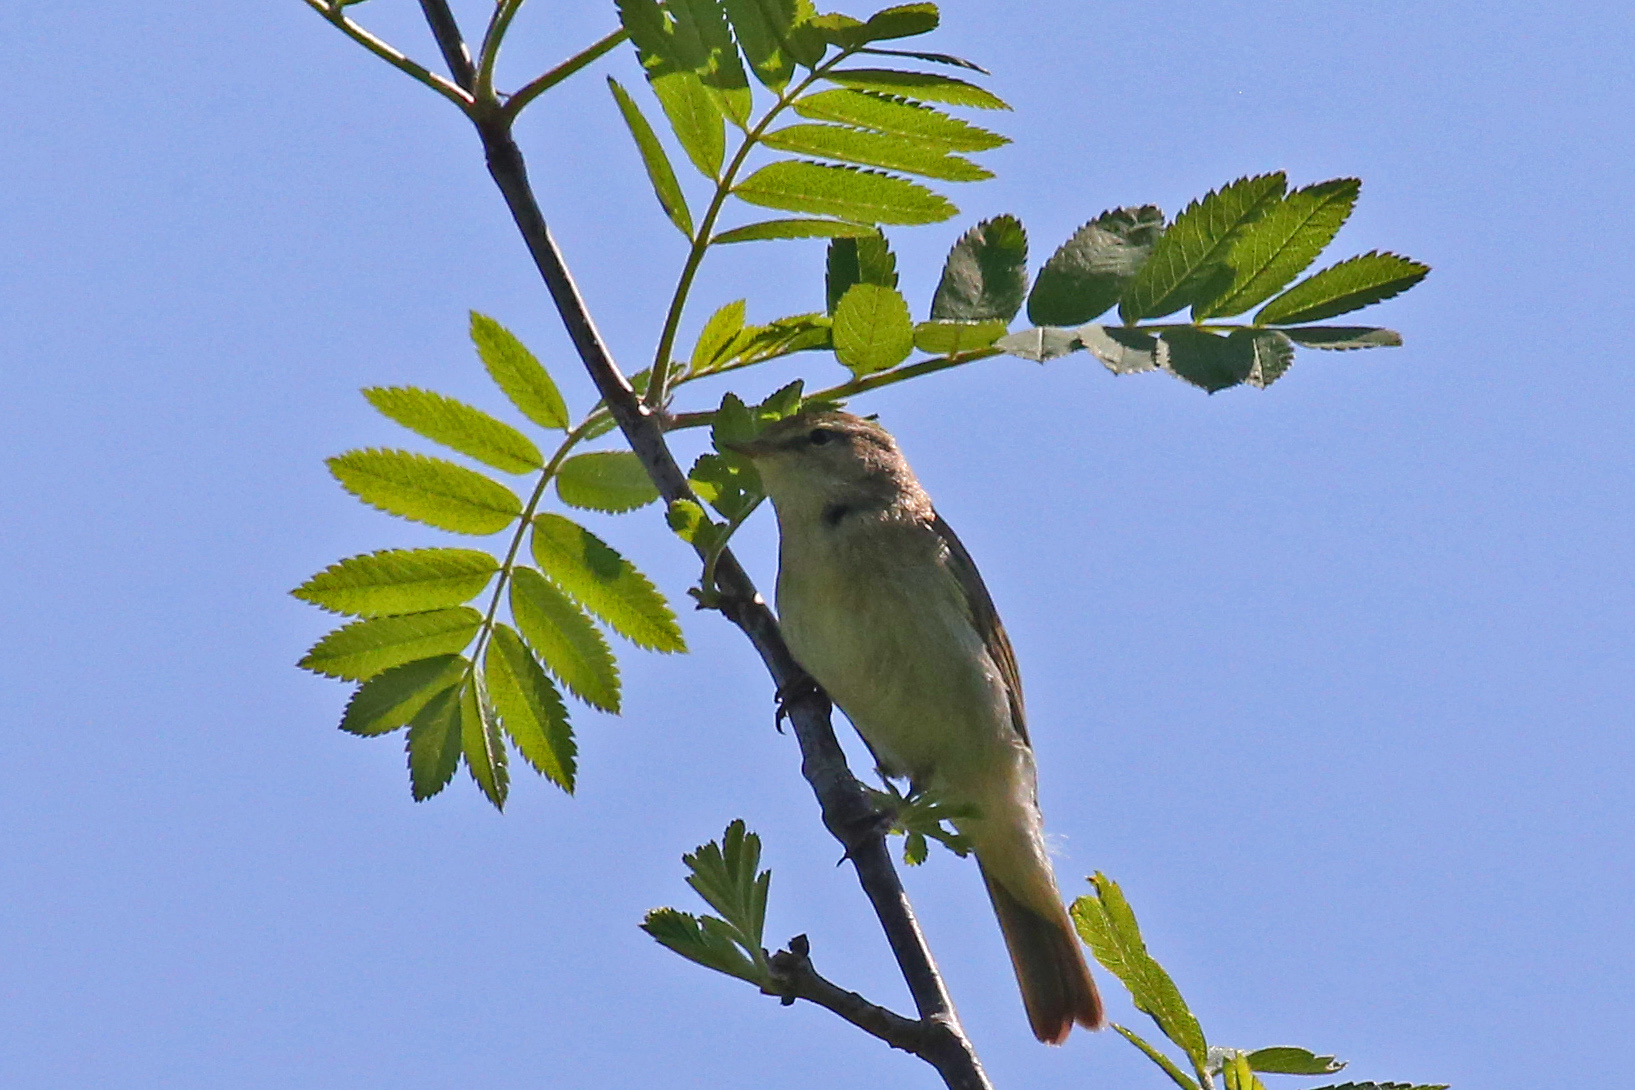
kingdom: Animalia
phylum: Chordata
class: Aves
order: Passeriformes
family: Phylloscopidae
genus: Phylloscopus
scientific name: Phylloscopus trochilus
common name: Willow warbler
